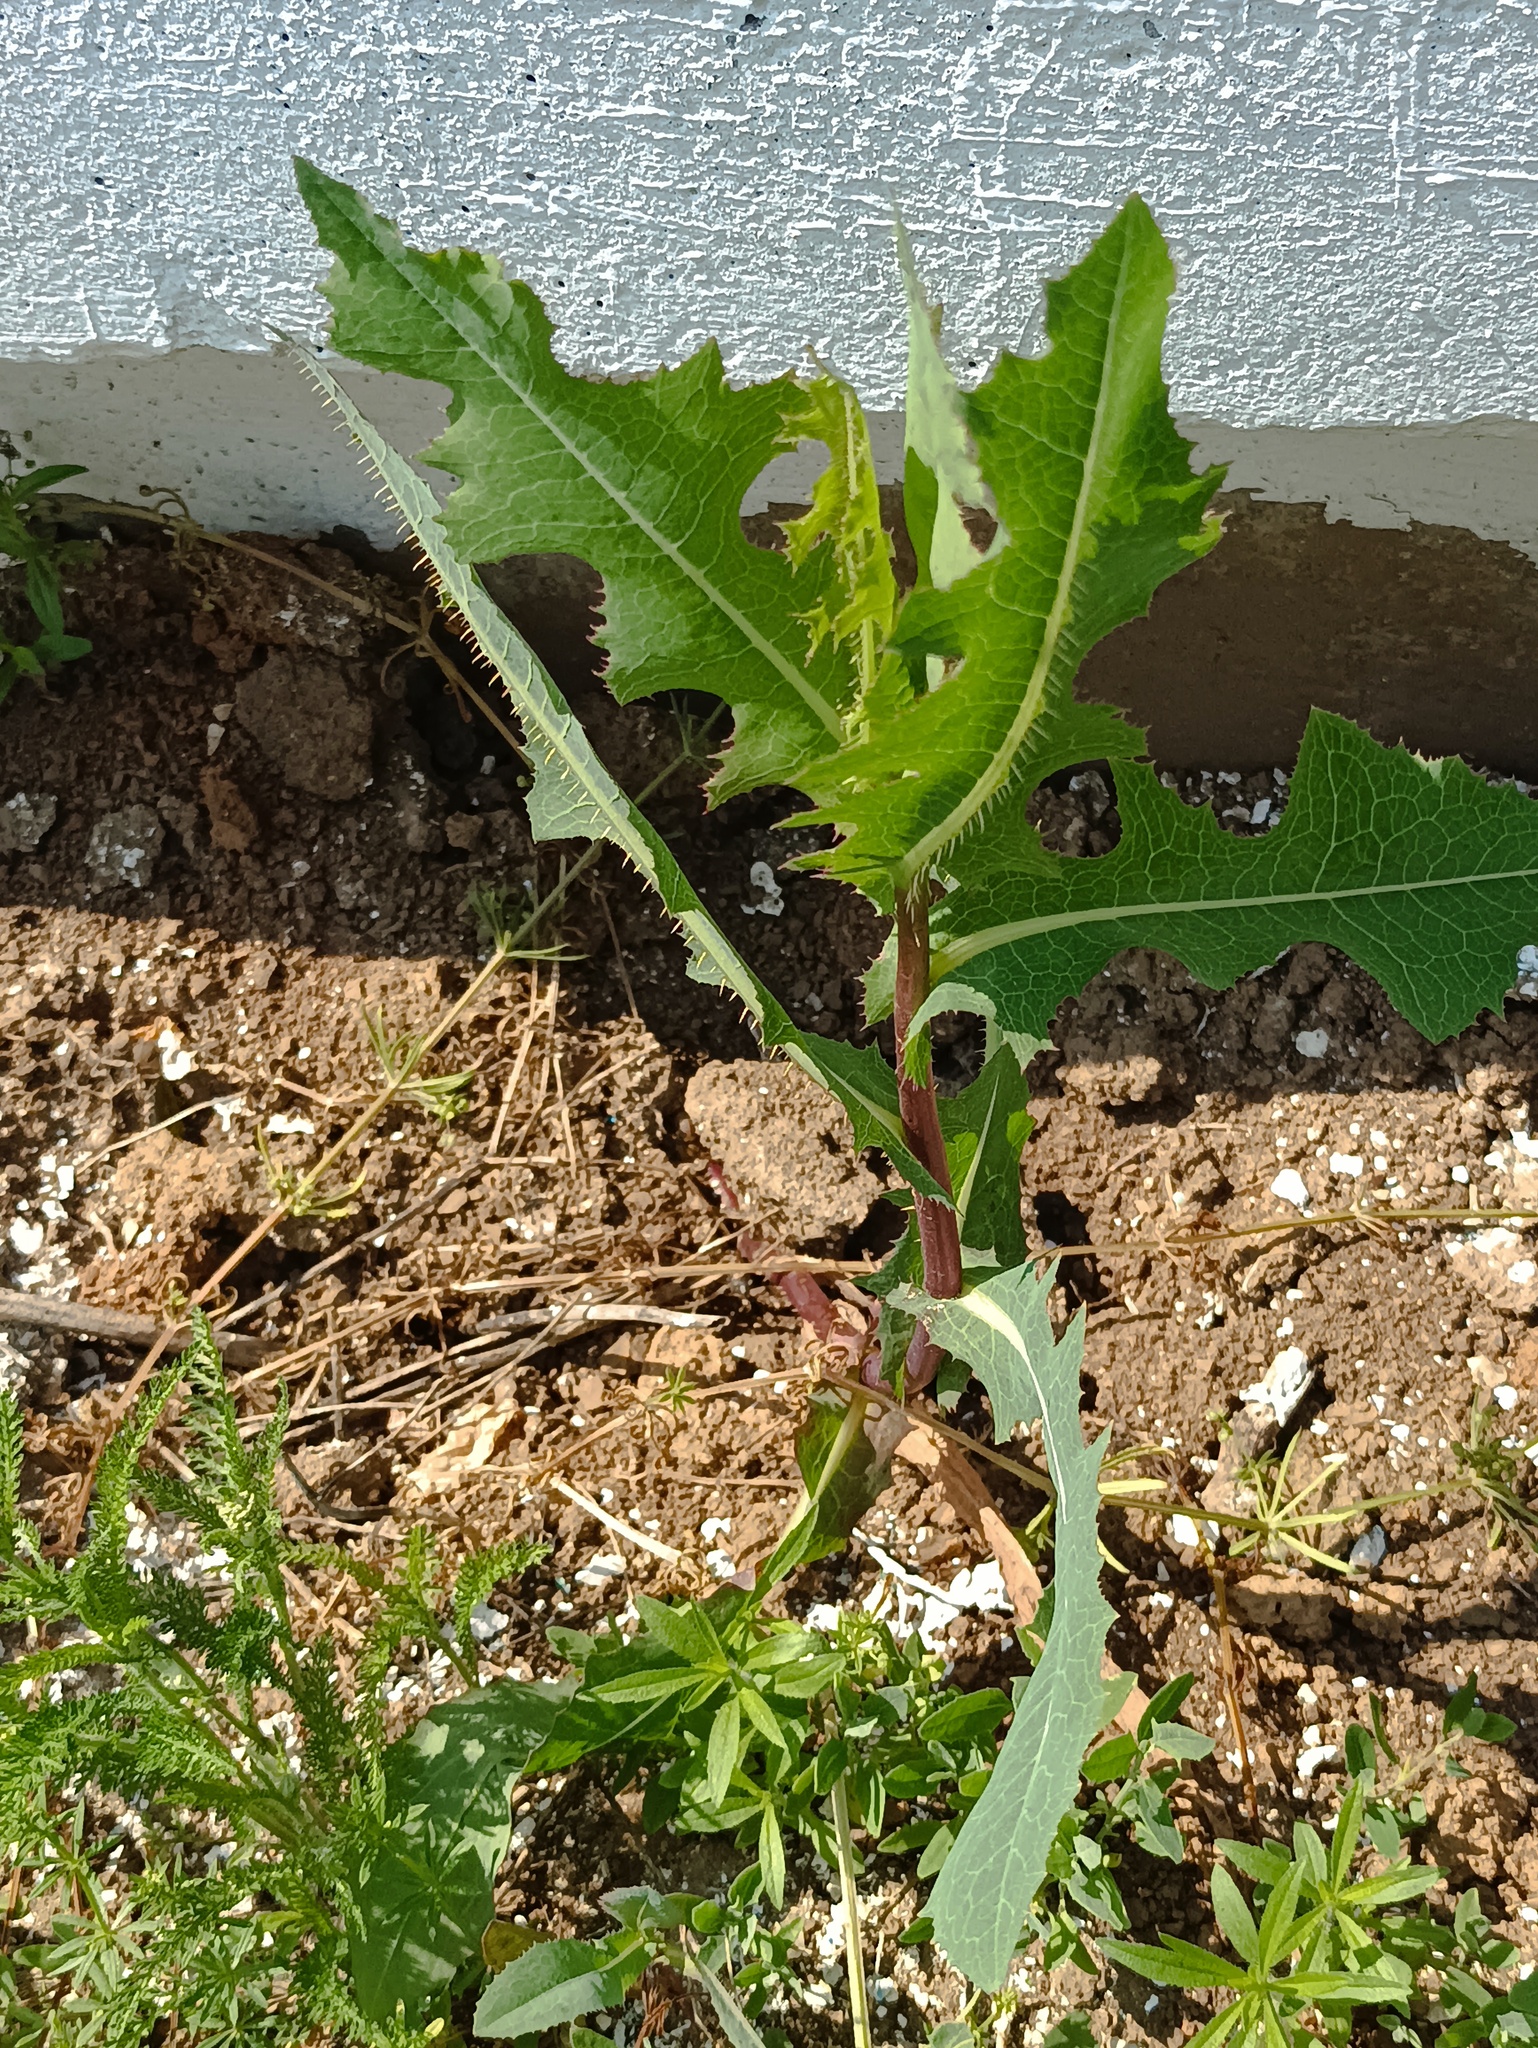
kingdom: Plantae
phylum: Tracheophyta
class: Magnoliopsida
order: Asterales
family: Asteraceae
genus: Lactuca
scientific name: Lactuca serriola
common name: Prickly lettuce
